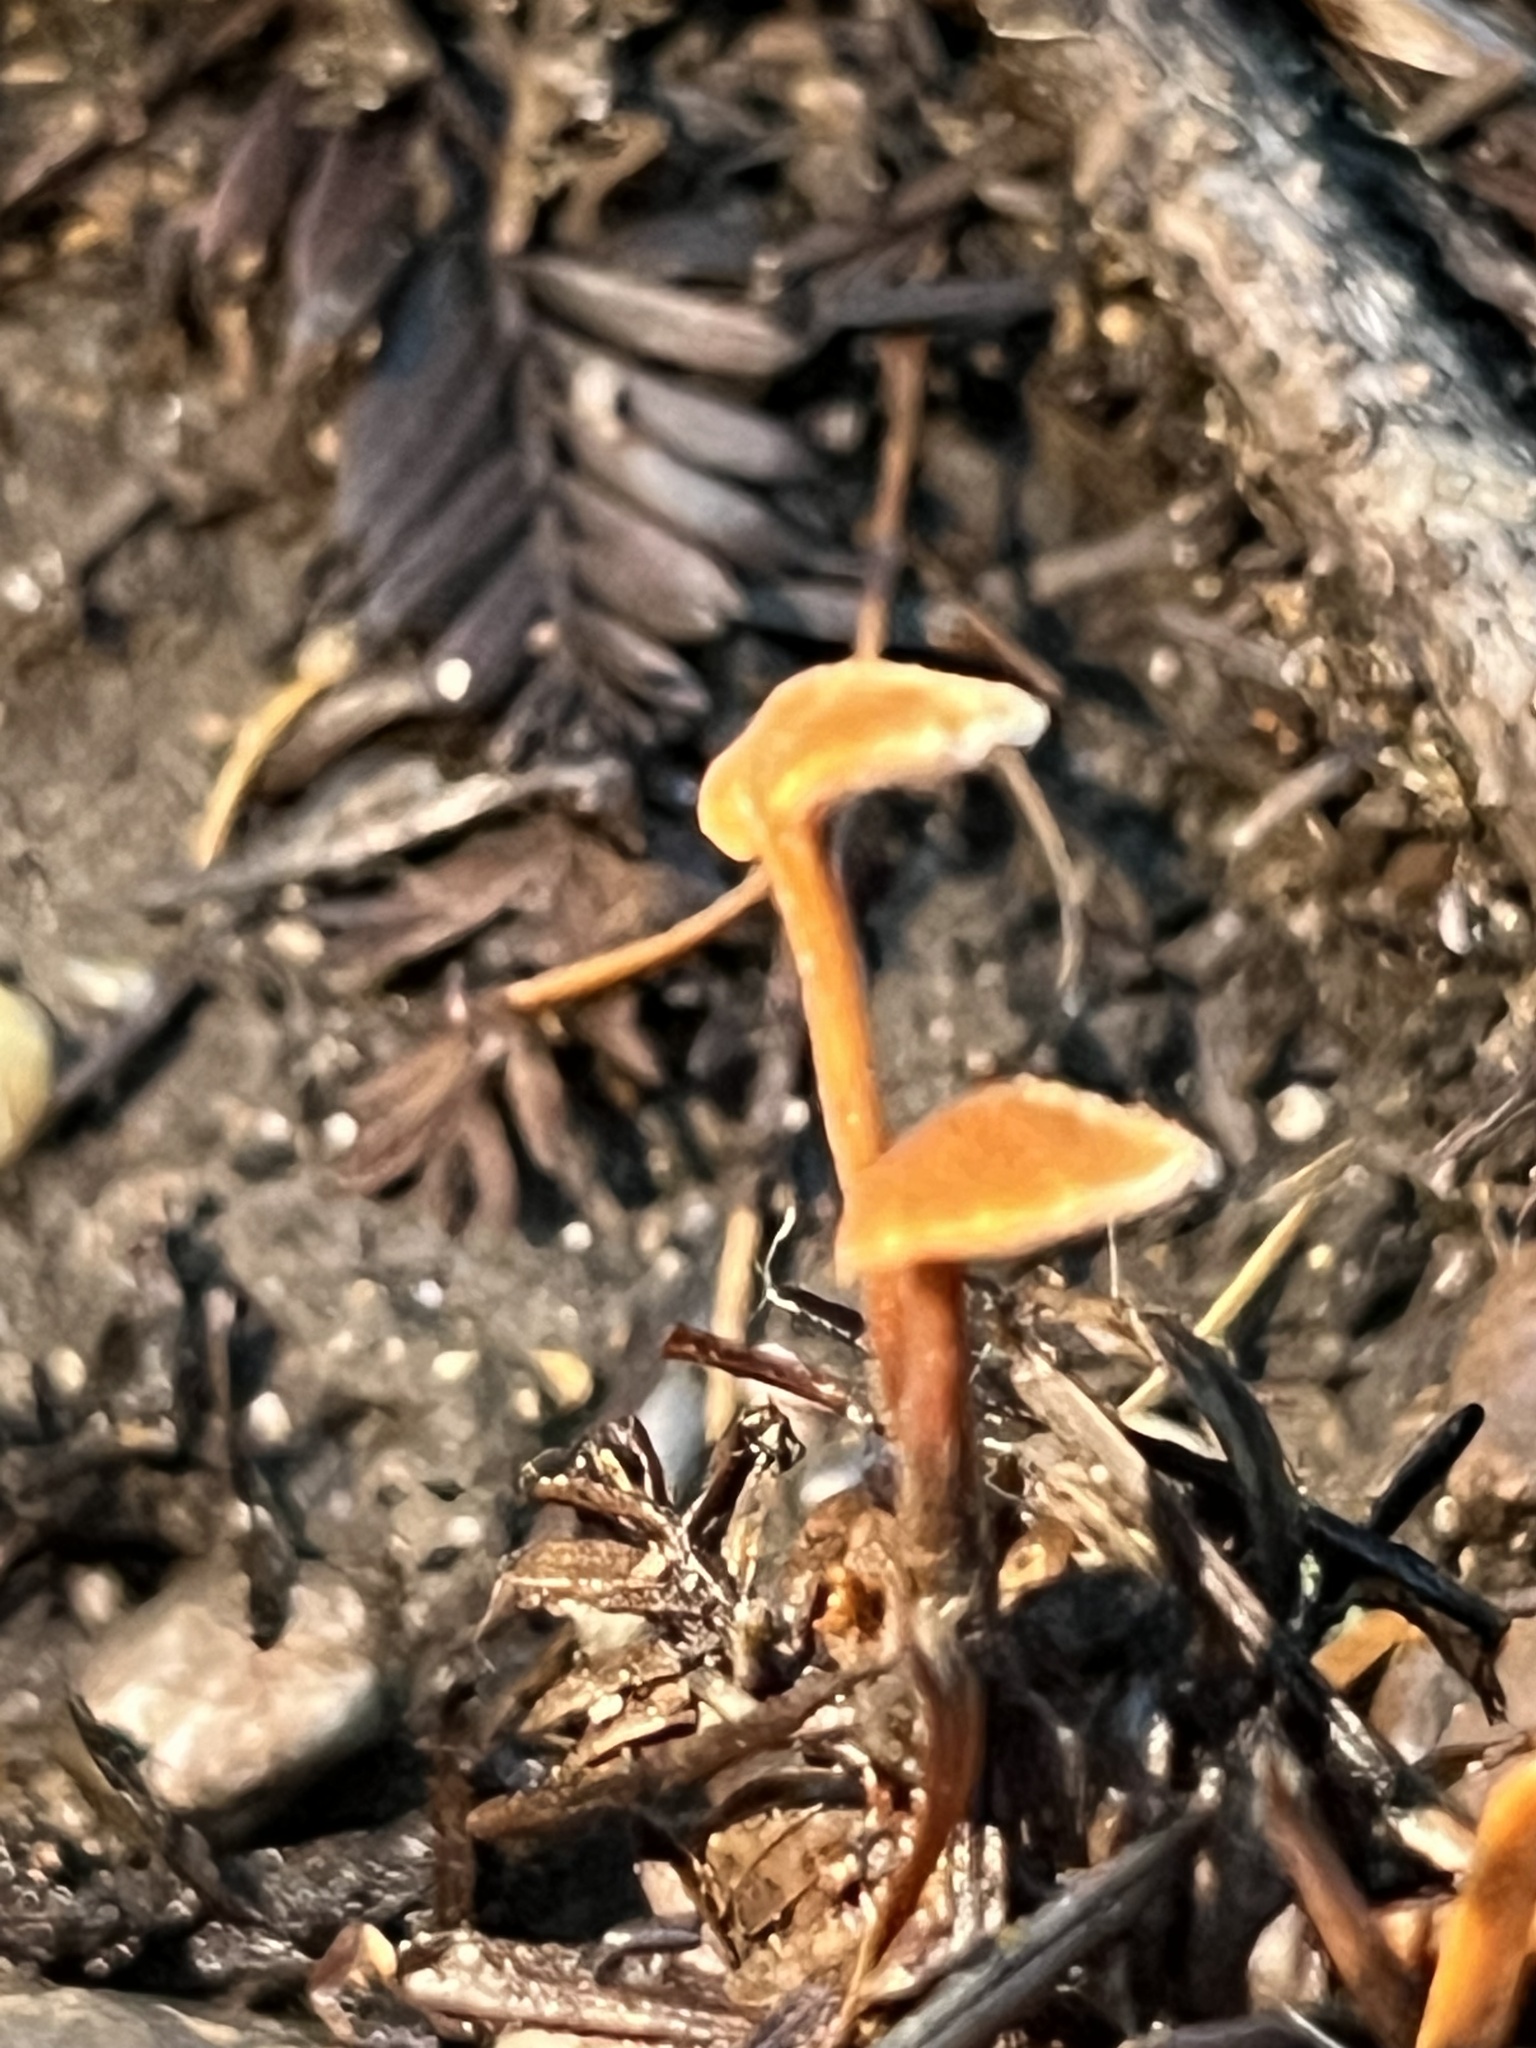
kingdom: Fungi
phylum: Basidiomycota
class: Agaricomycetes
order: Russulales
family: Auriscalpiaceae
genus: Auriscalpium
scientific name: Auriscalpium vulgare
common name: Earpick fungus
